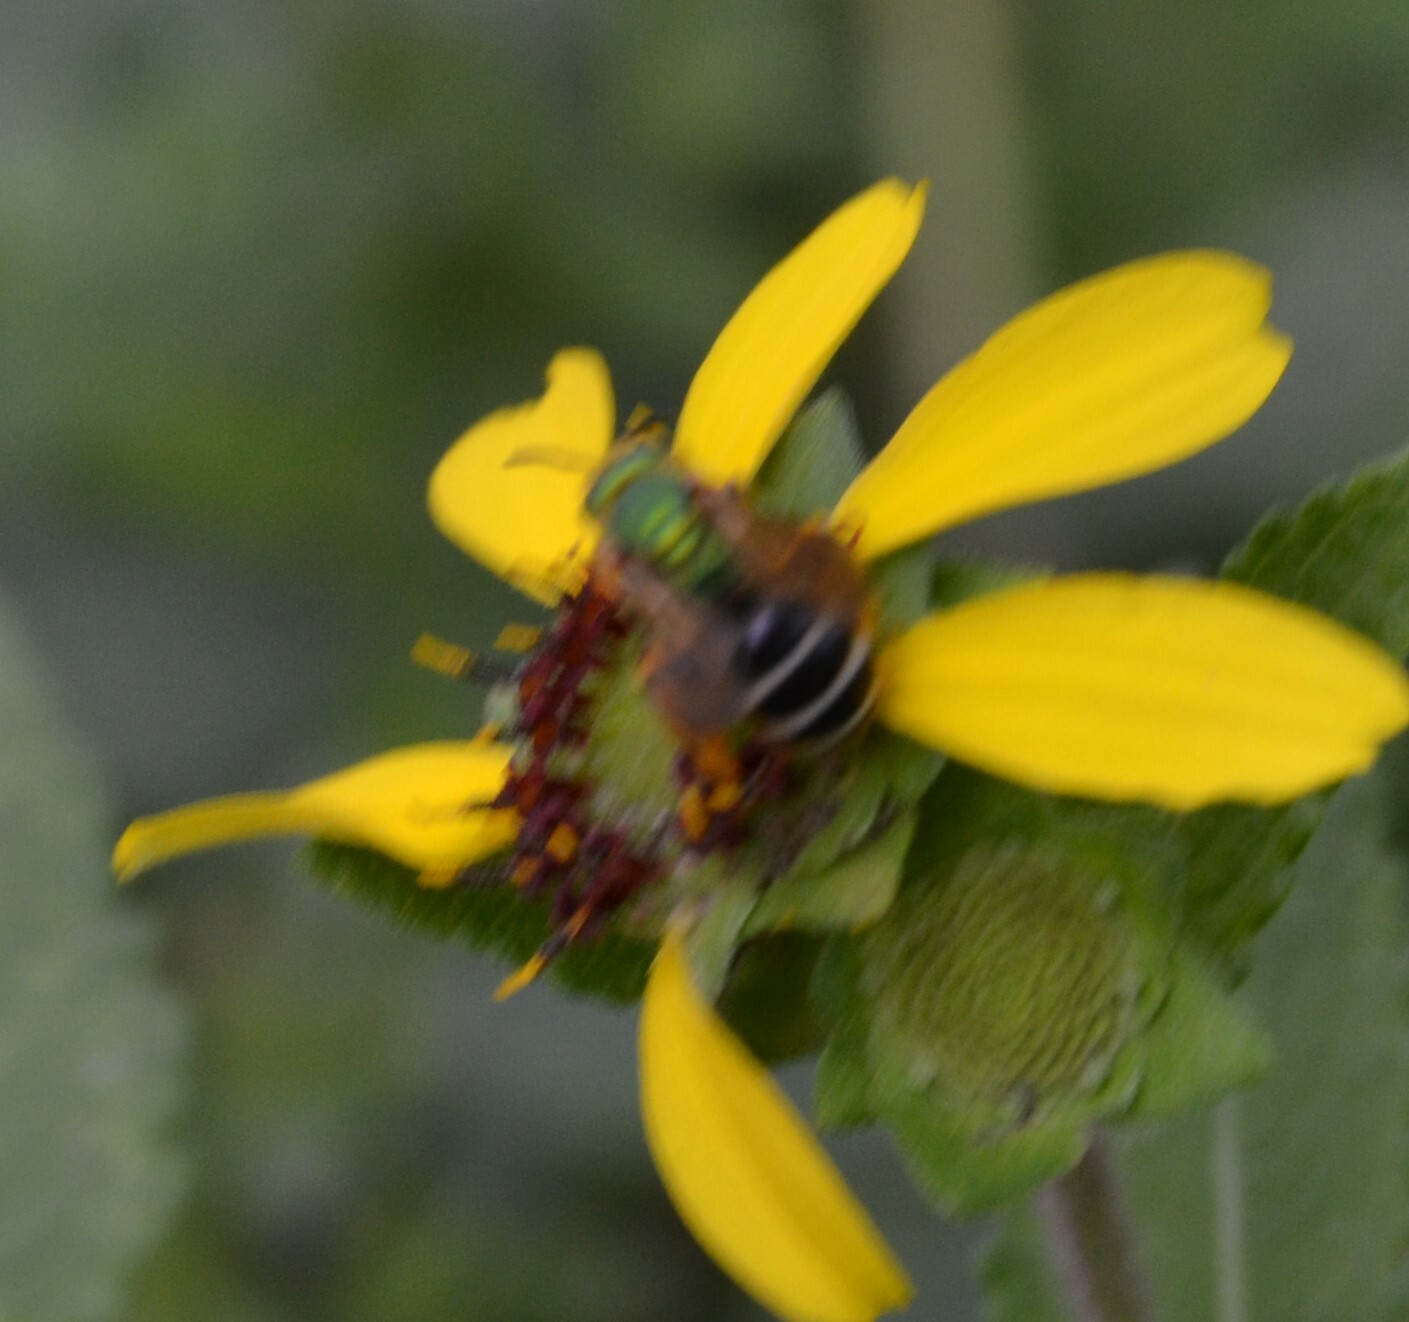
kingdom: Animalia
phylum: Arthropoda
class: Insecta
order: Hymenoptera
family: Halictidae
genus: Agapostemon
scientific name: Agapostemon virescens
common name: Bicolored striped sweat bee
